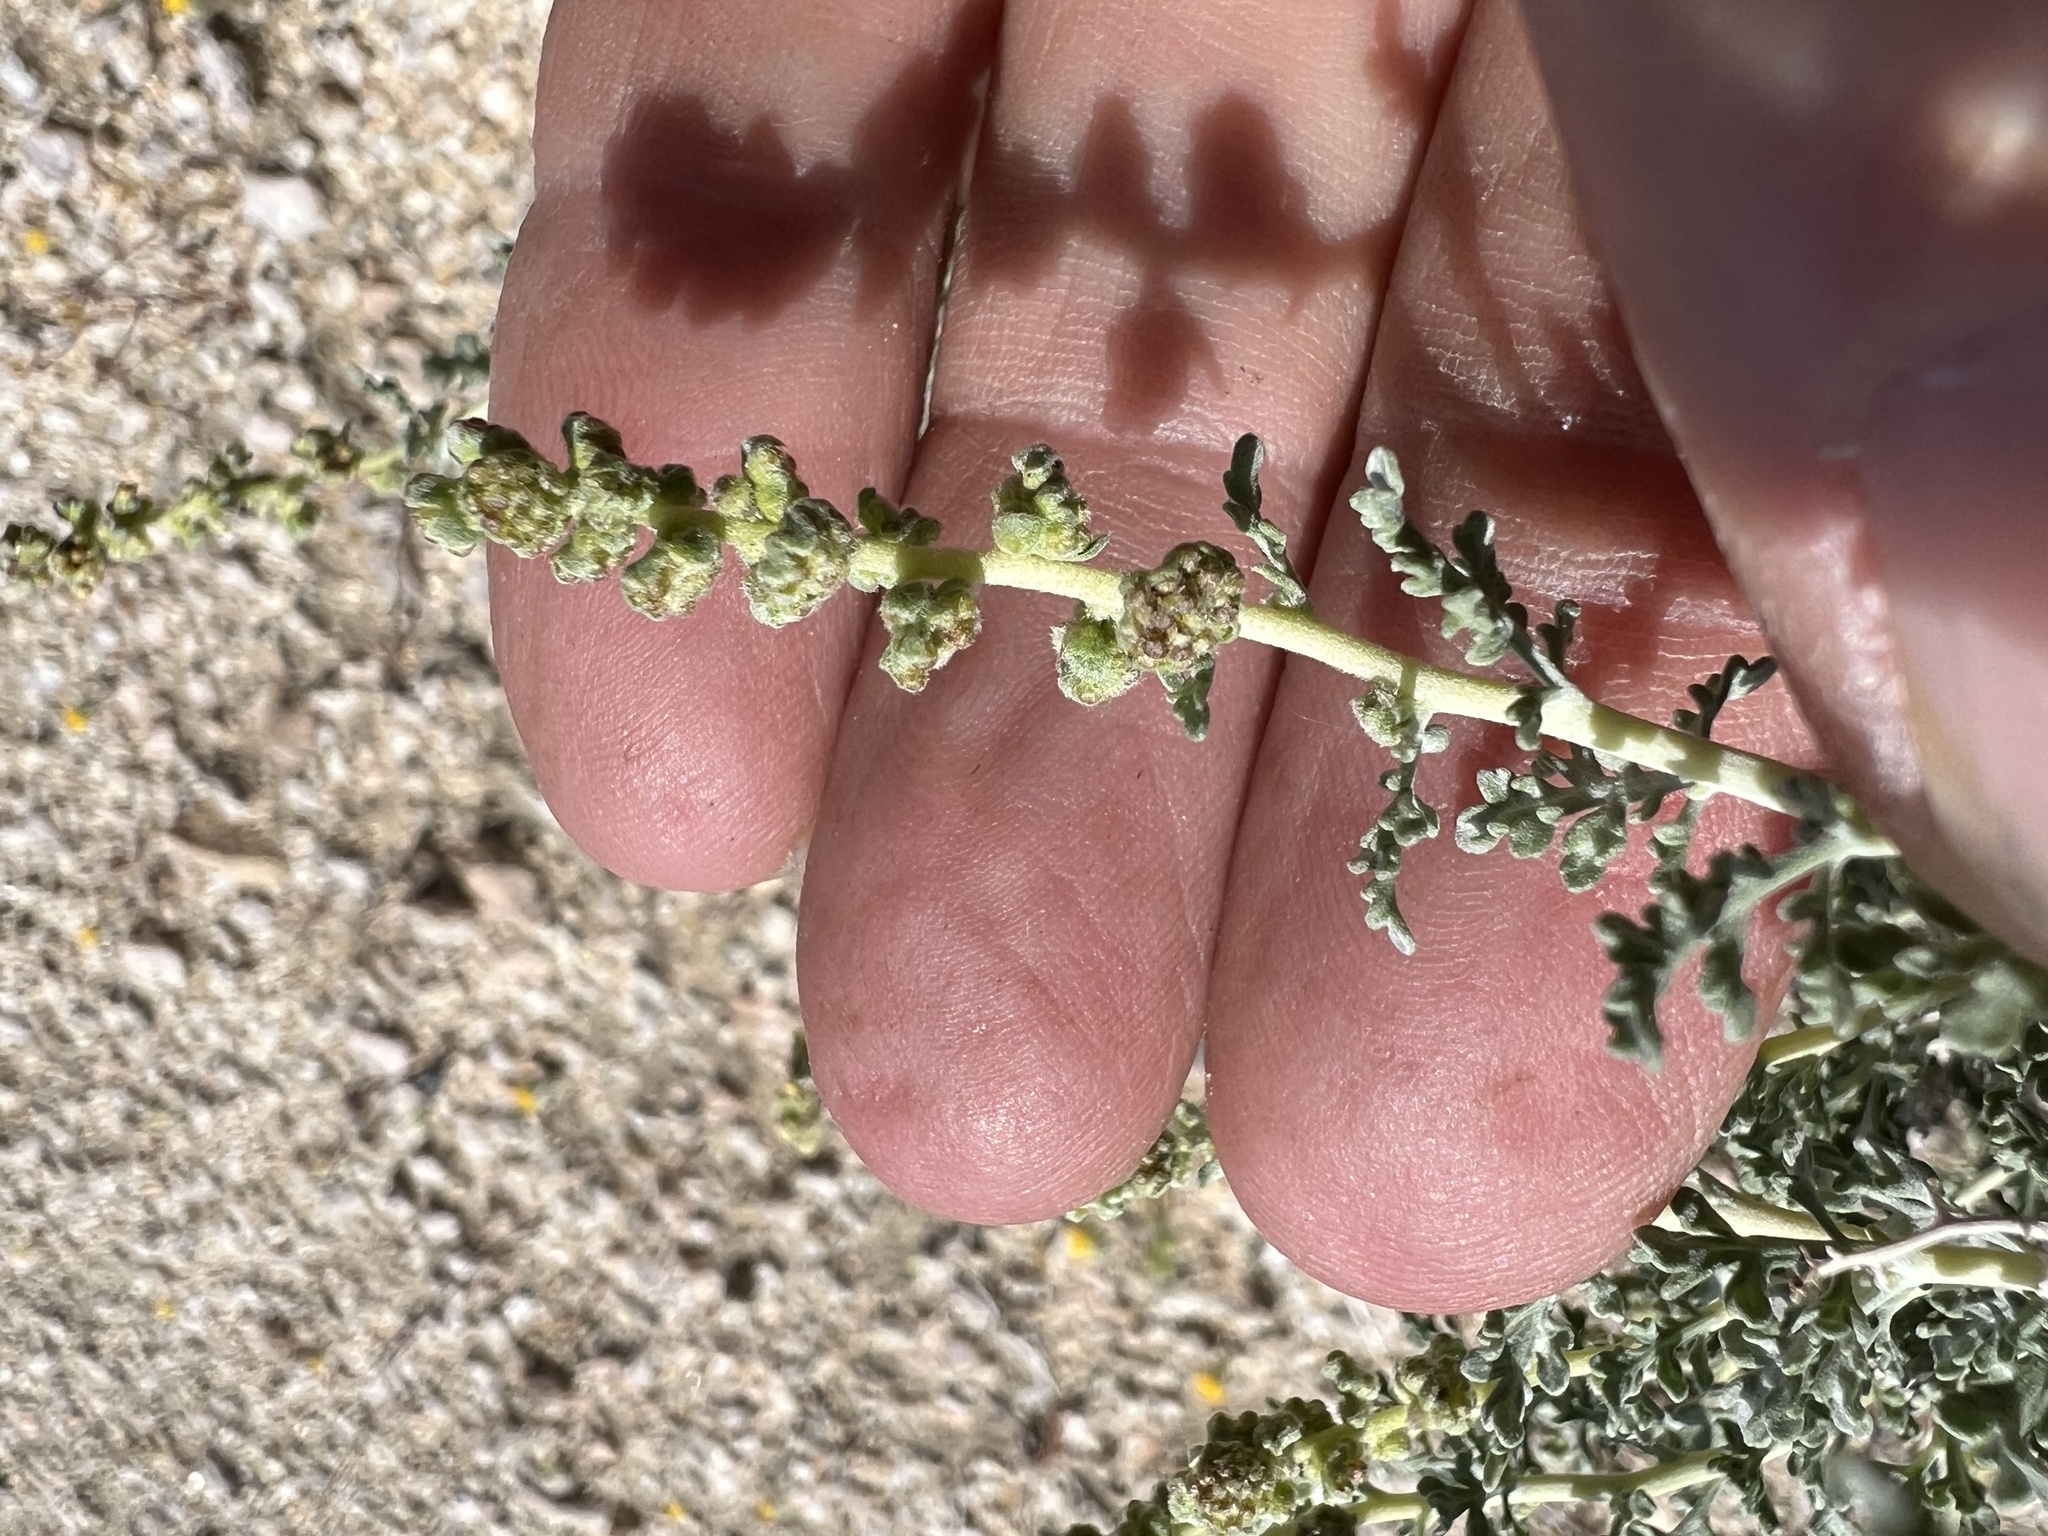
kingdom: Plantae
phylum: Tracheophyta
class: Magnoliopsida
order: Asterales
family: Asteraceae
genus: Ambrosia
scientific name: Ambrosia dumosa
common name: Bur-sage
